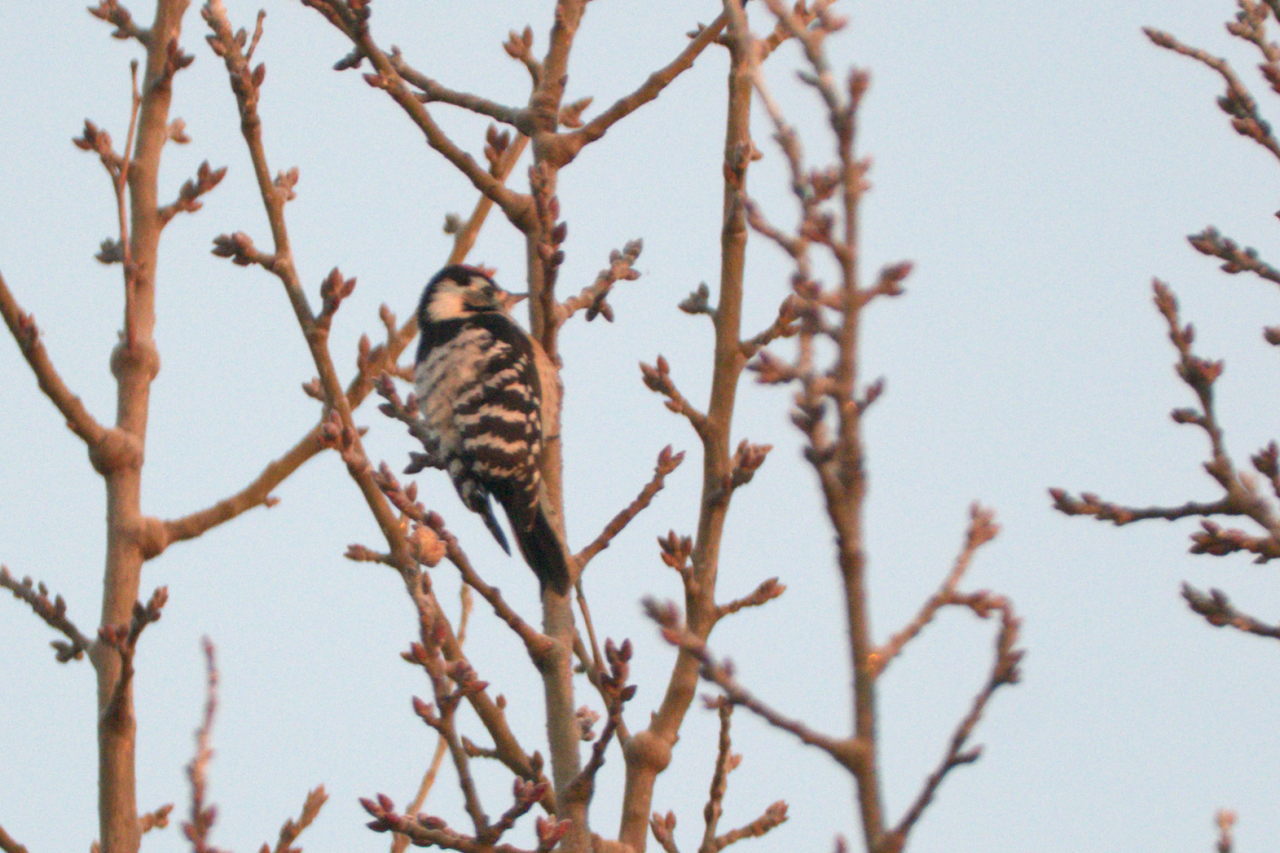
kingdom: Animalia
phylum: Chordata
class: Aves
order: Piciformes
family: Picidae
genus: Dryobates
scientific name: Dryobates minor
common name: Lesser spotted woodpecker
